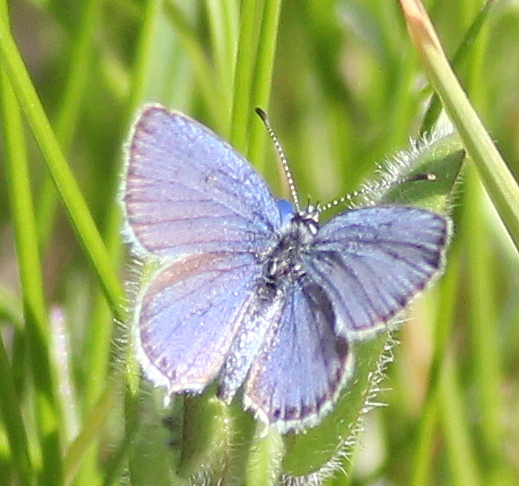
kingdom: Animalia
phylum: Arthropoda
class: Insecta
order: Lepidoptera
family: Lycaenidae
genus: Elkalyce
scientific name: Elkalyce argiades
